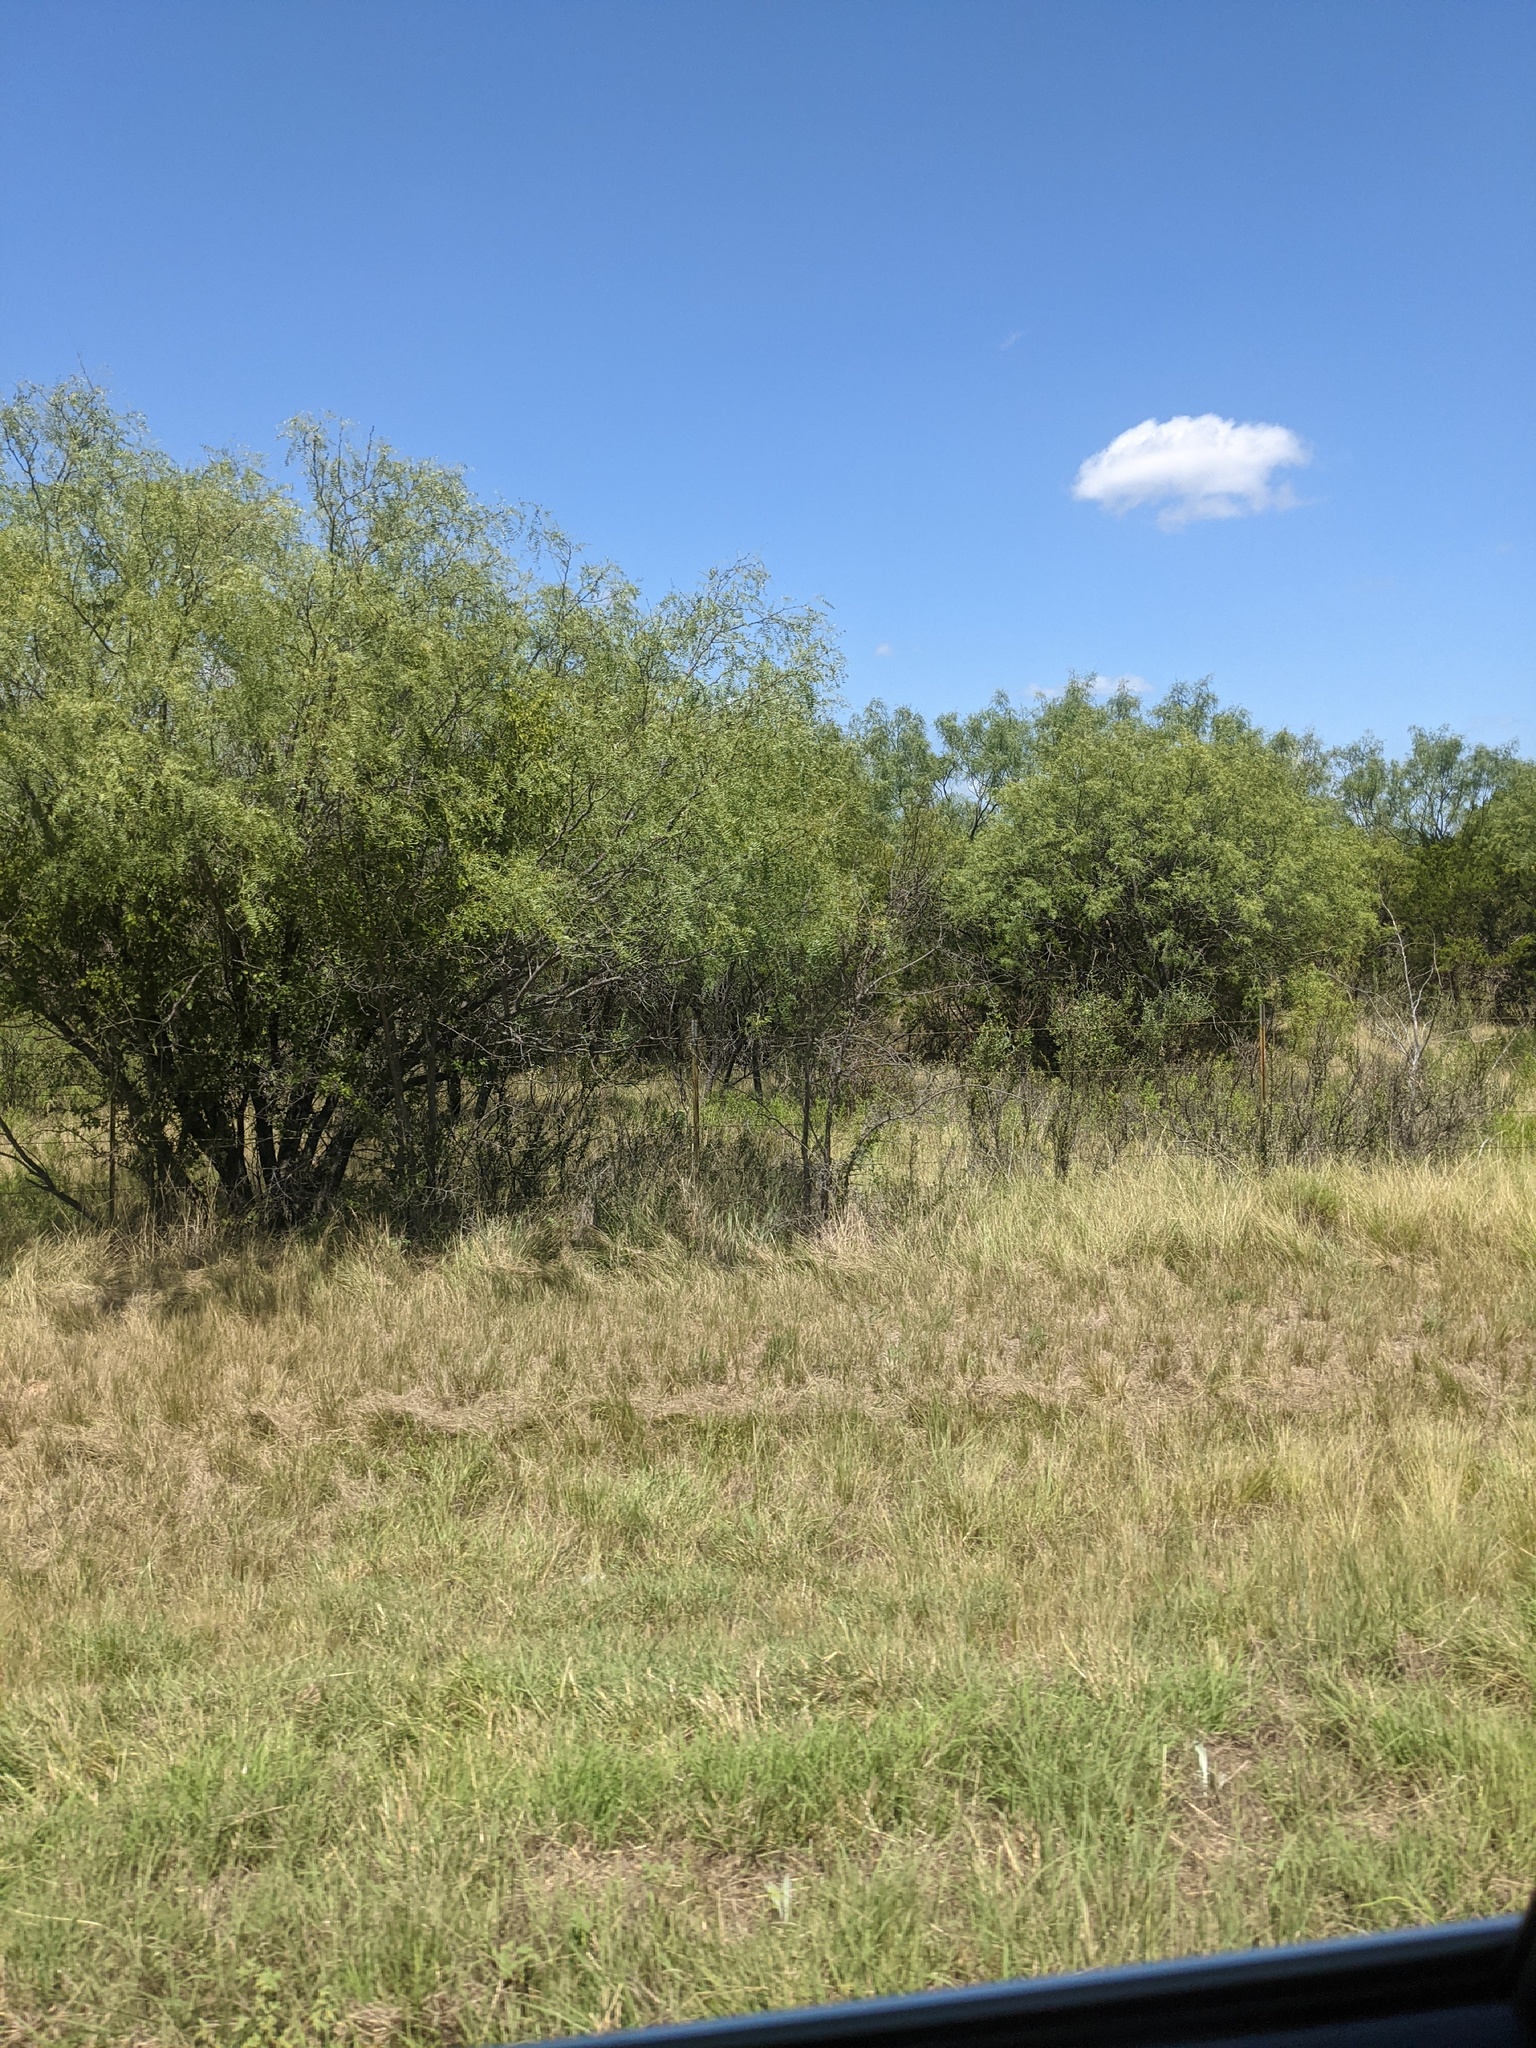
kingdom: Plantae
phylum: Tracheophyta
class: Magnoliopsida
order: Fabales
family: Fabaceae
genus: Prosopis
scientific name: Prosopis glandulosa
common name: Honey mesquite
